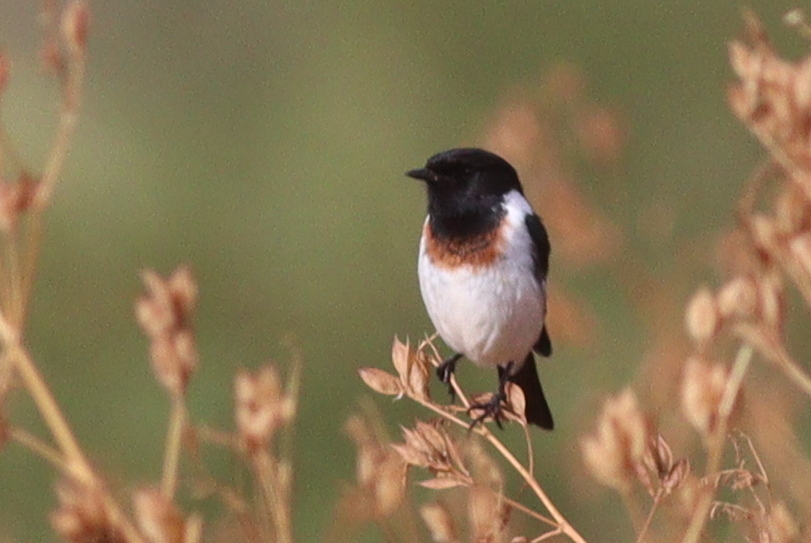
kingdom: Animalia
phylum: Chordata
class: Aves
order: Passeriformes
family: Muscicapidae
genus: Saxicola
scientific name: Saxicola torquatus
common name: African stonechat
